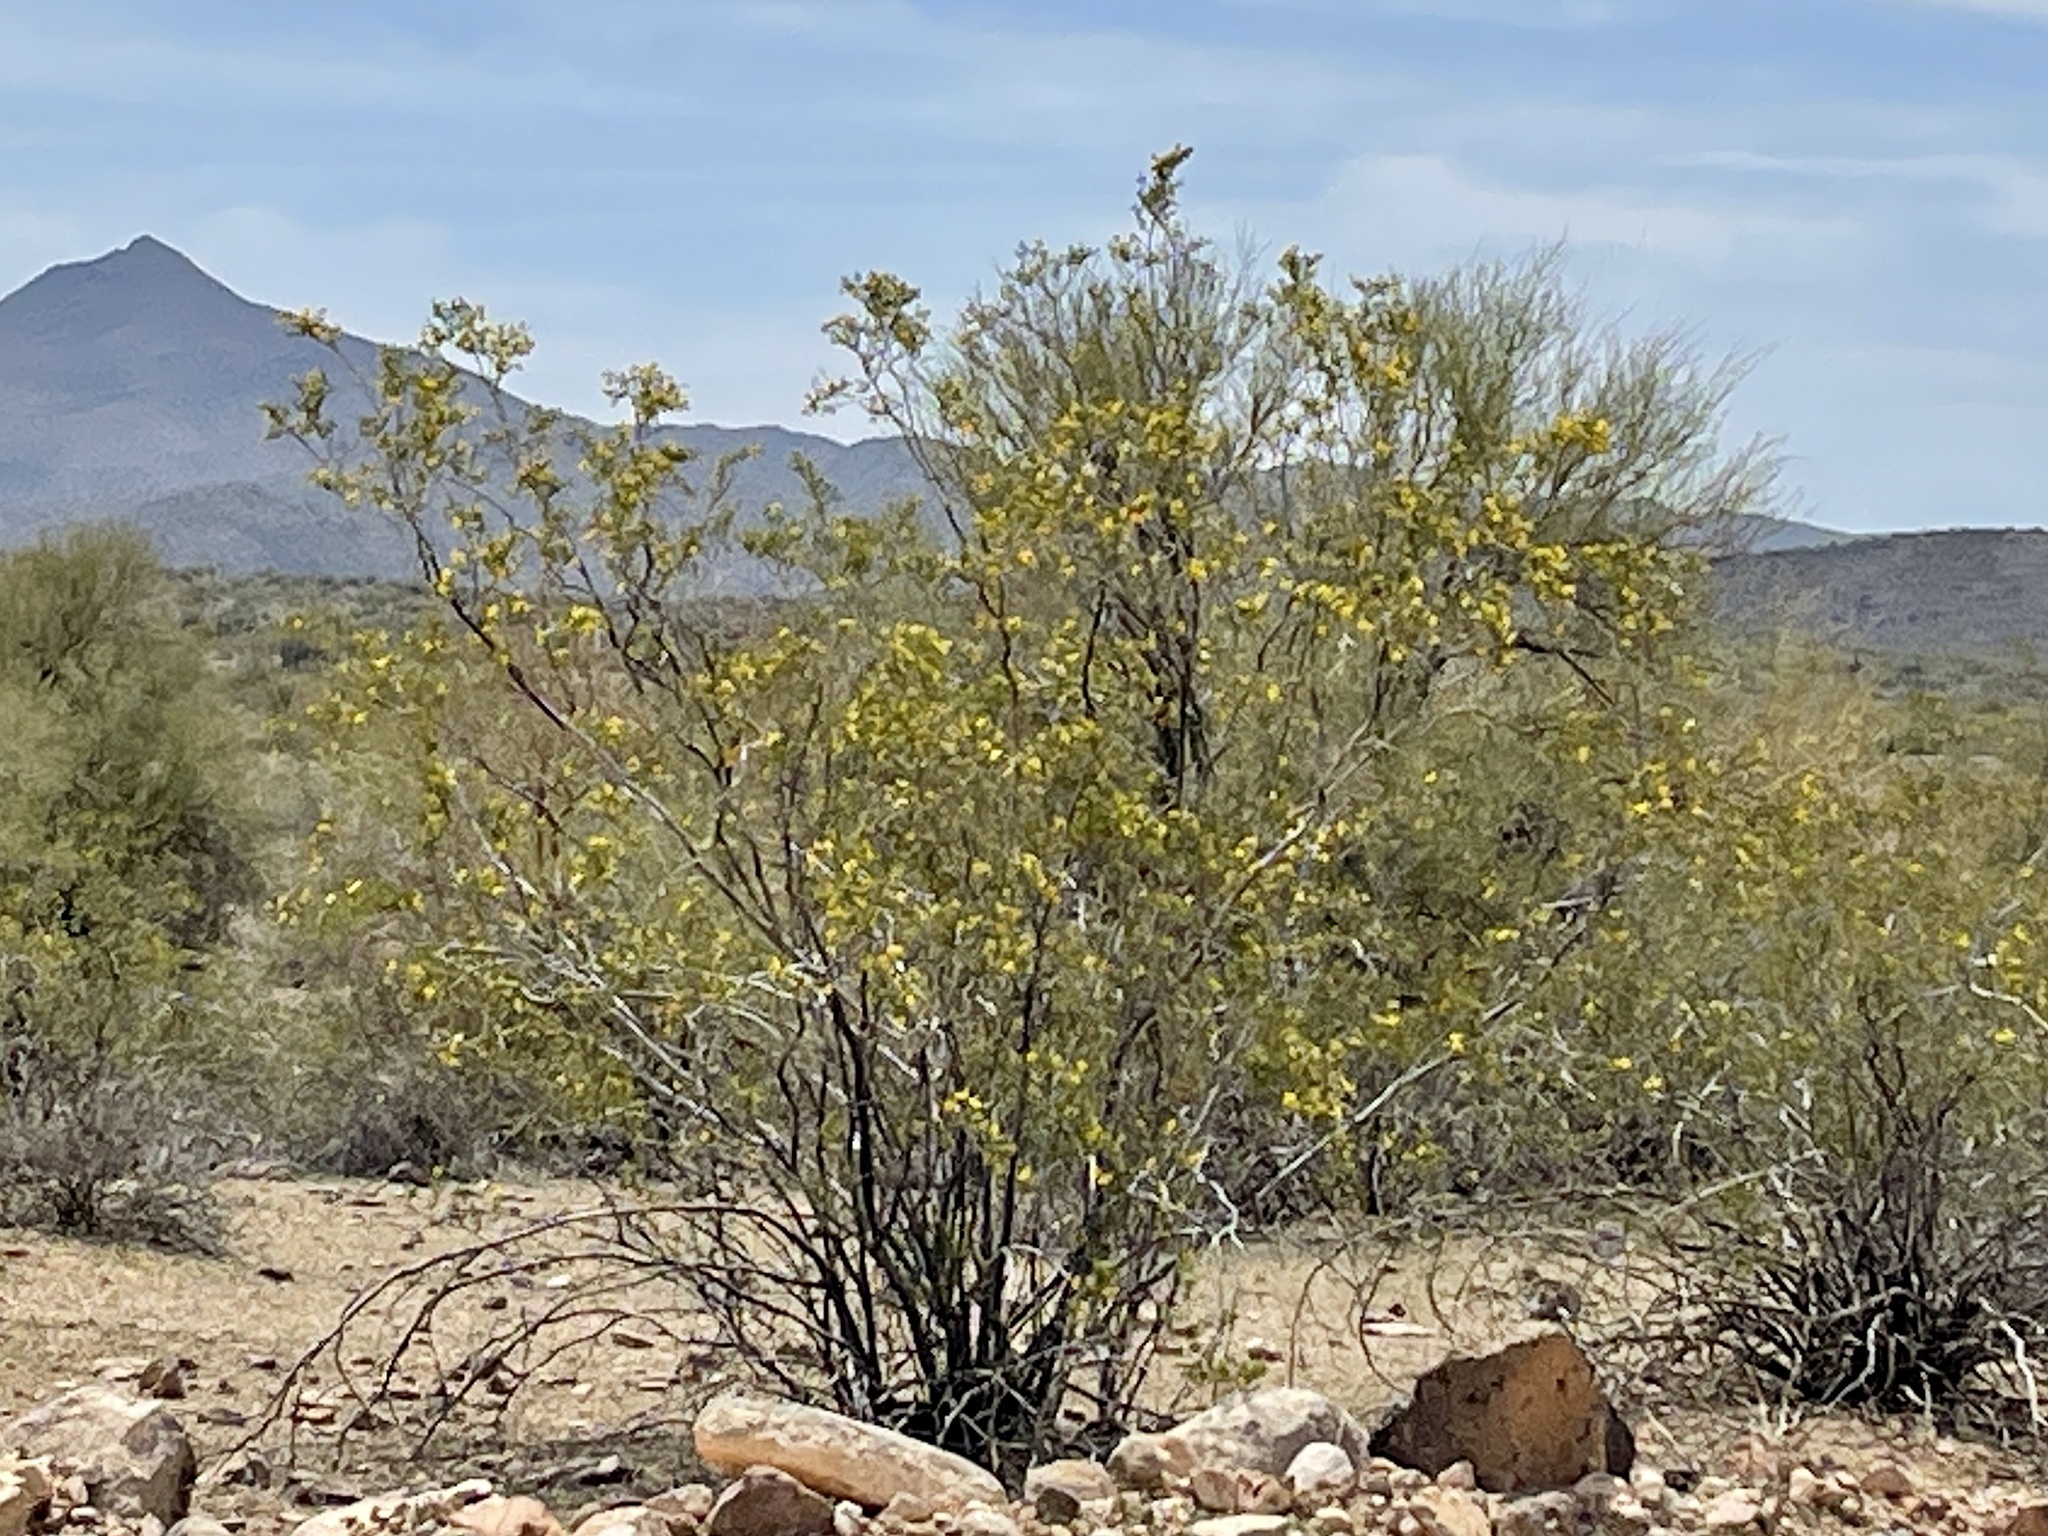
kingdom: Plantae
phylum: Tracheophyta
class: Magnoliopsida
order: Zygophyllales
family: Zygophyllaceae
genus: Larrea
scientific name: Larrea tridentata
